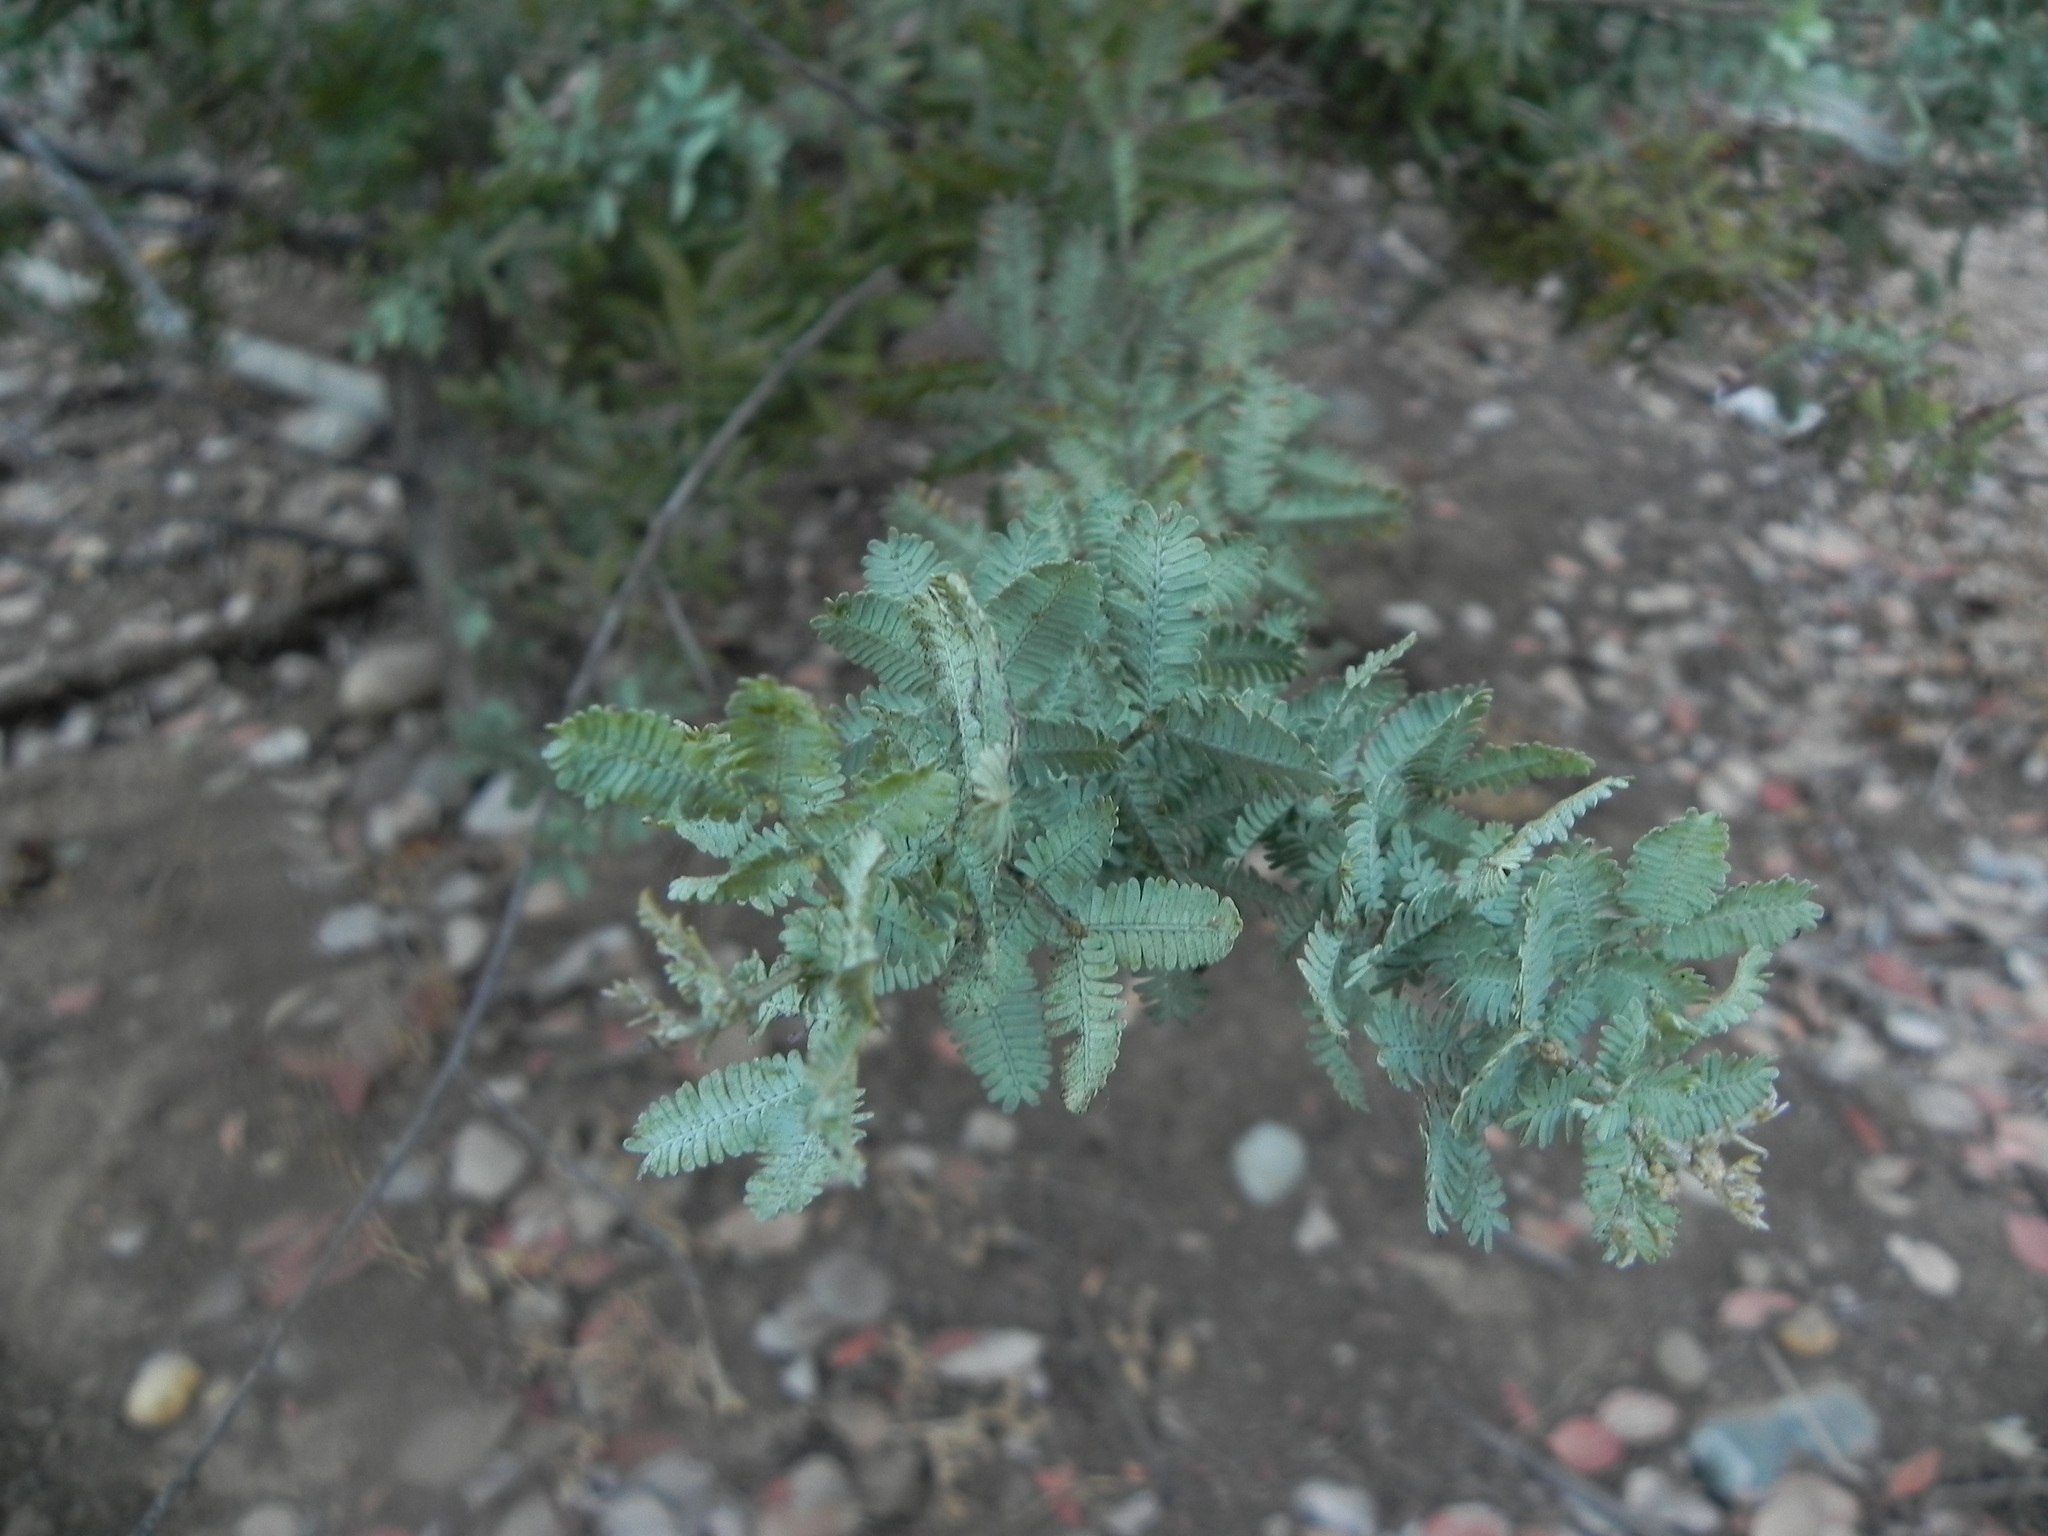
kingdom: Plantae
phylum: Tracheophyta
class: Magnoliopsida
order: Fabales
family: Fabaceae
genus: Acacia
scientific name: Acacia baileyana
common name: Cootamundra wattle
